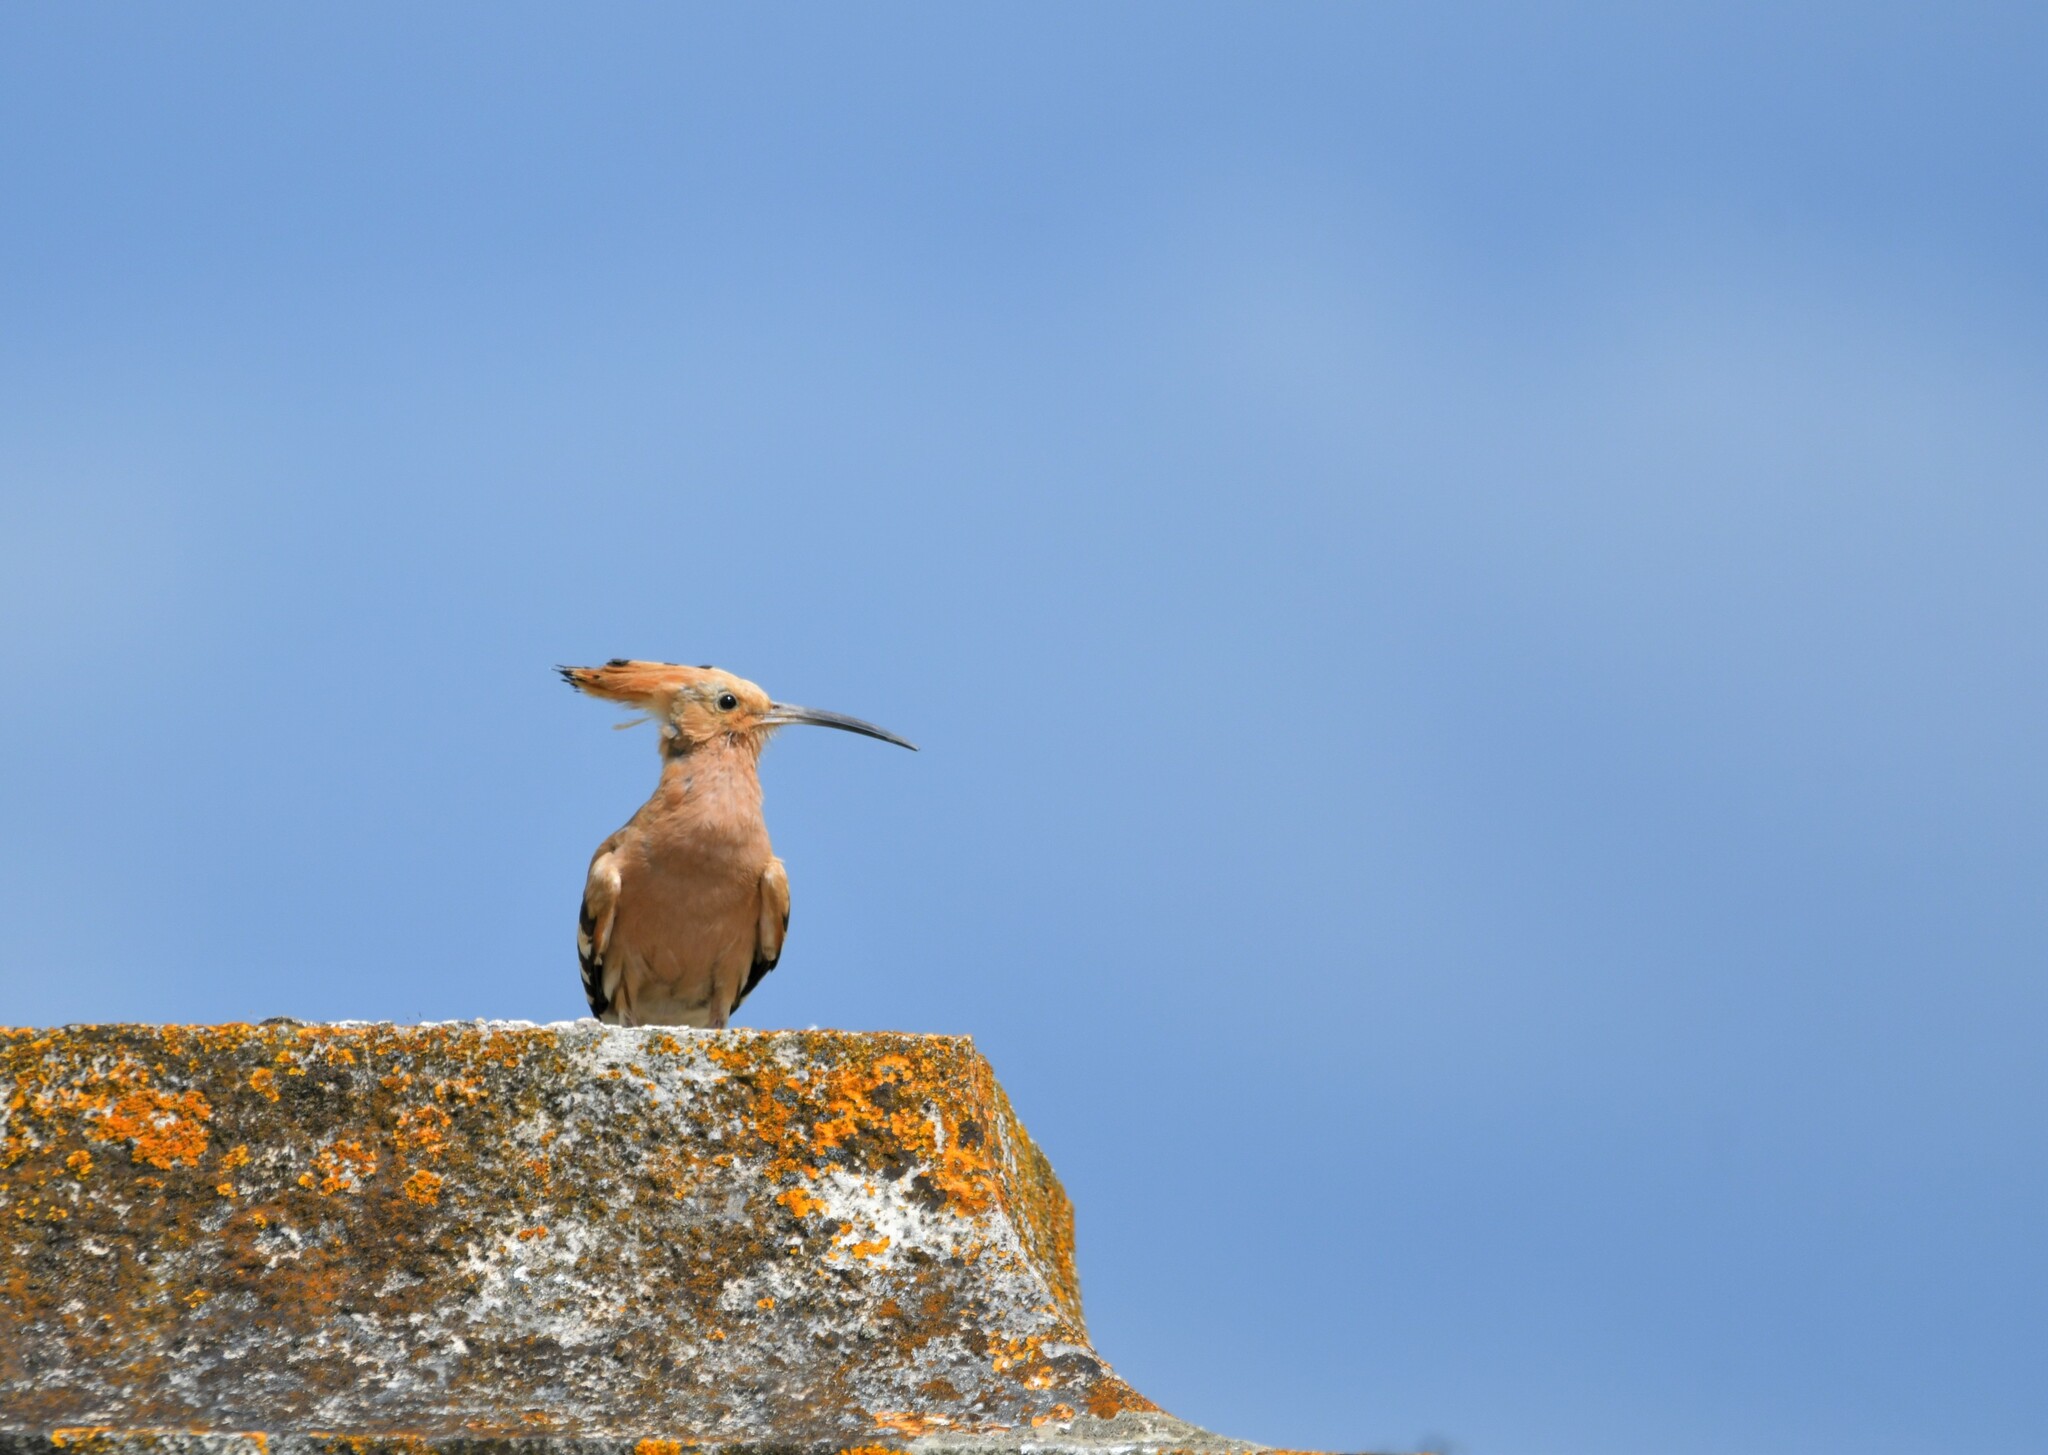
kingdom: Animalia
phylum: Chordata
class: Aves
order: Bucerotiformes
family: Upupidae
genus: Upupa
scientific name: Upupa epops
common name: Eurasian hoopoe
